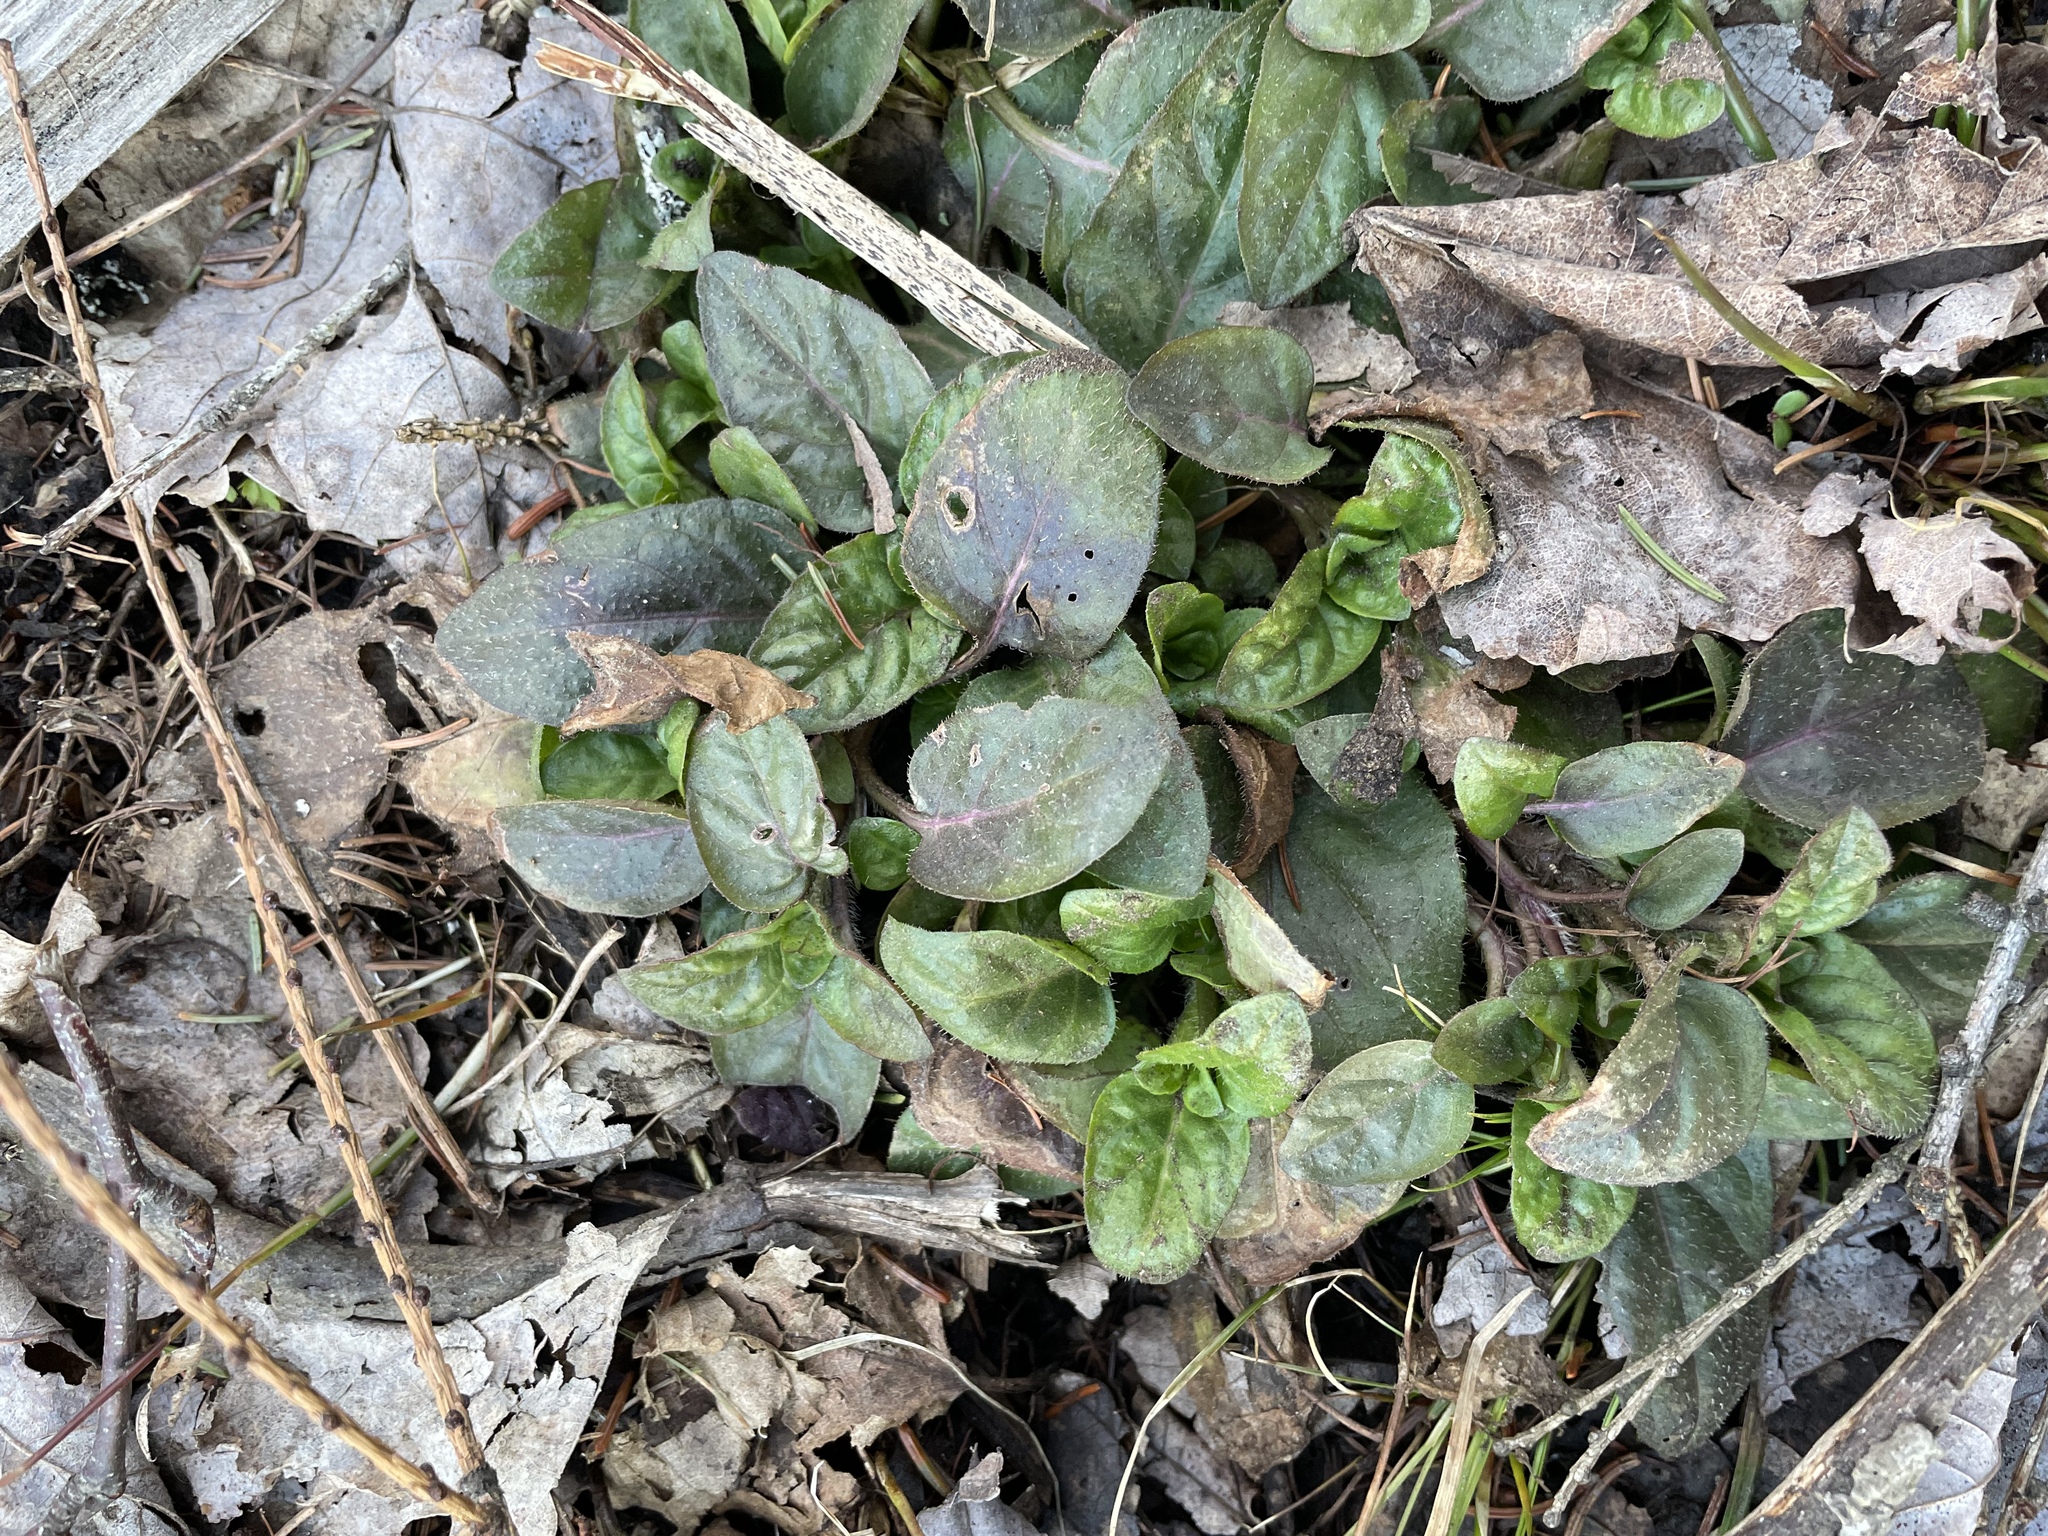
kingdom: Plantae
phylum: Tracheophyta
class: Magnoliopsida
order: Lamiales
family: Lamiaceae
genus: Prunella
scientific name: Prunella vulgaris
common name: Heal-all
